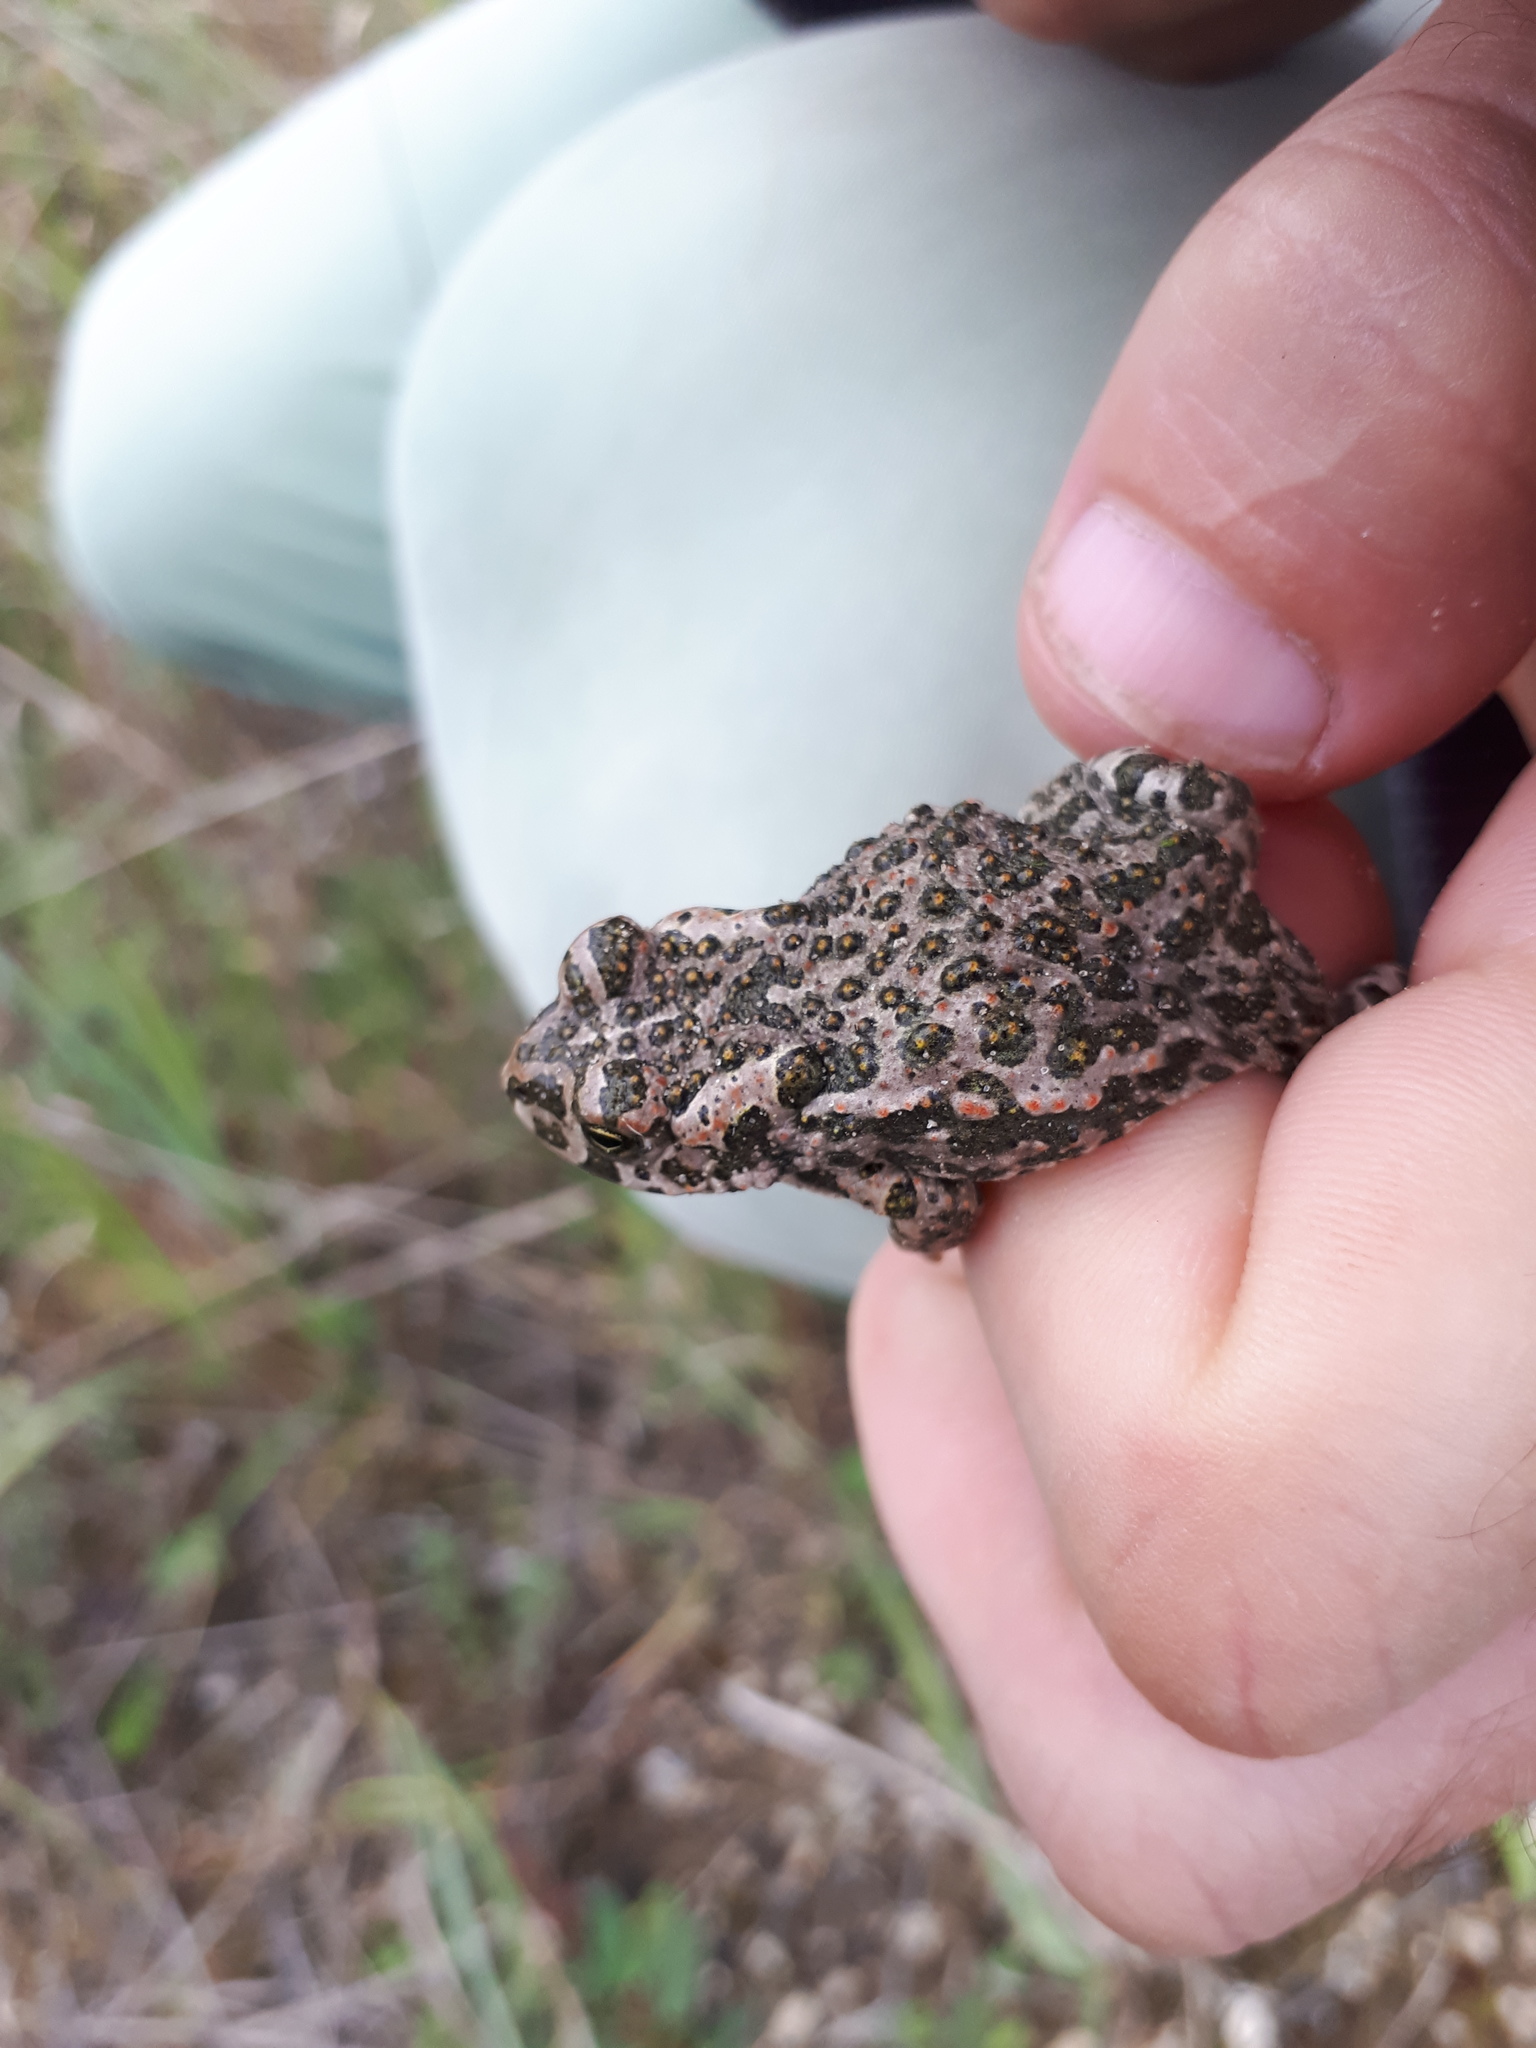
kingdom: Animalia
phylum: Chordata
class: Amphibia
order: Anura
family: Bufonidae
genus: Bufotes
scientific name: Bufotes viridis
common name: European green toad
